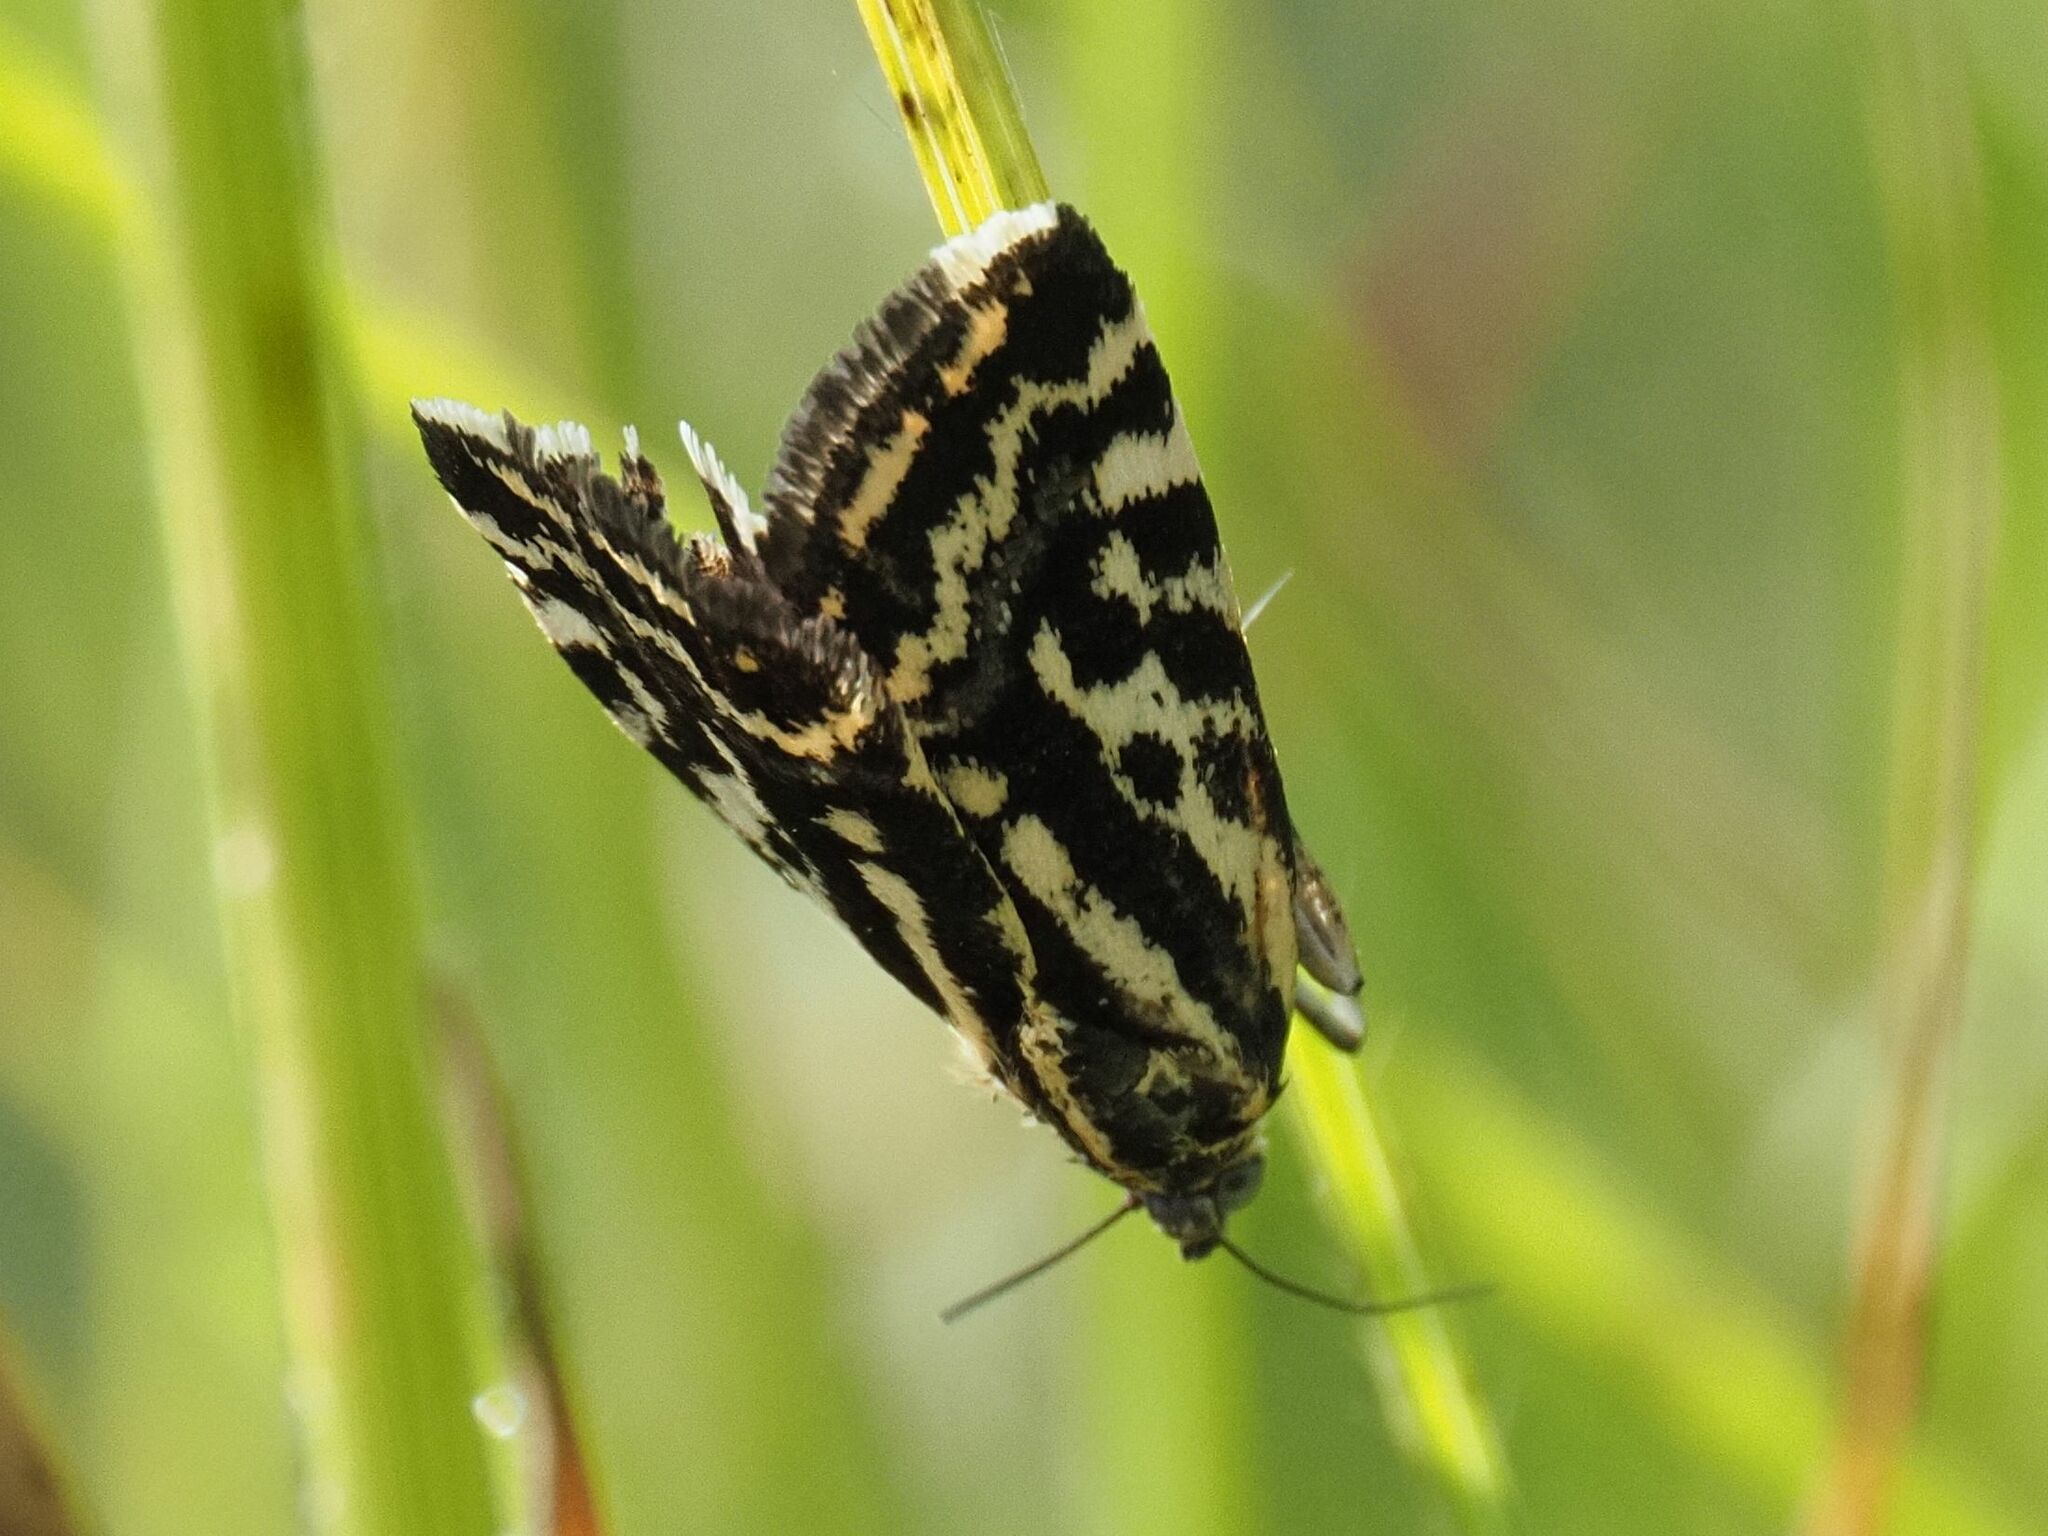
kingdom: Animalia
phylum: Arthropoda
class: Insecta
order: Lepidoptera
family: Noctuidae
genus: Acontia
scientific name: Acontia trabealis
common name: Spotted sulphur
